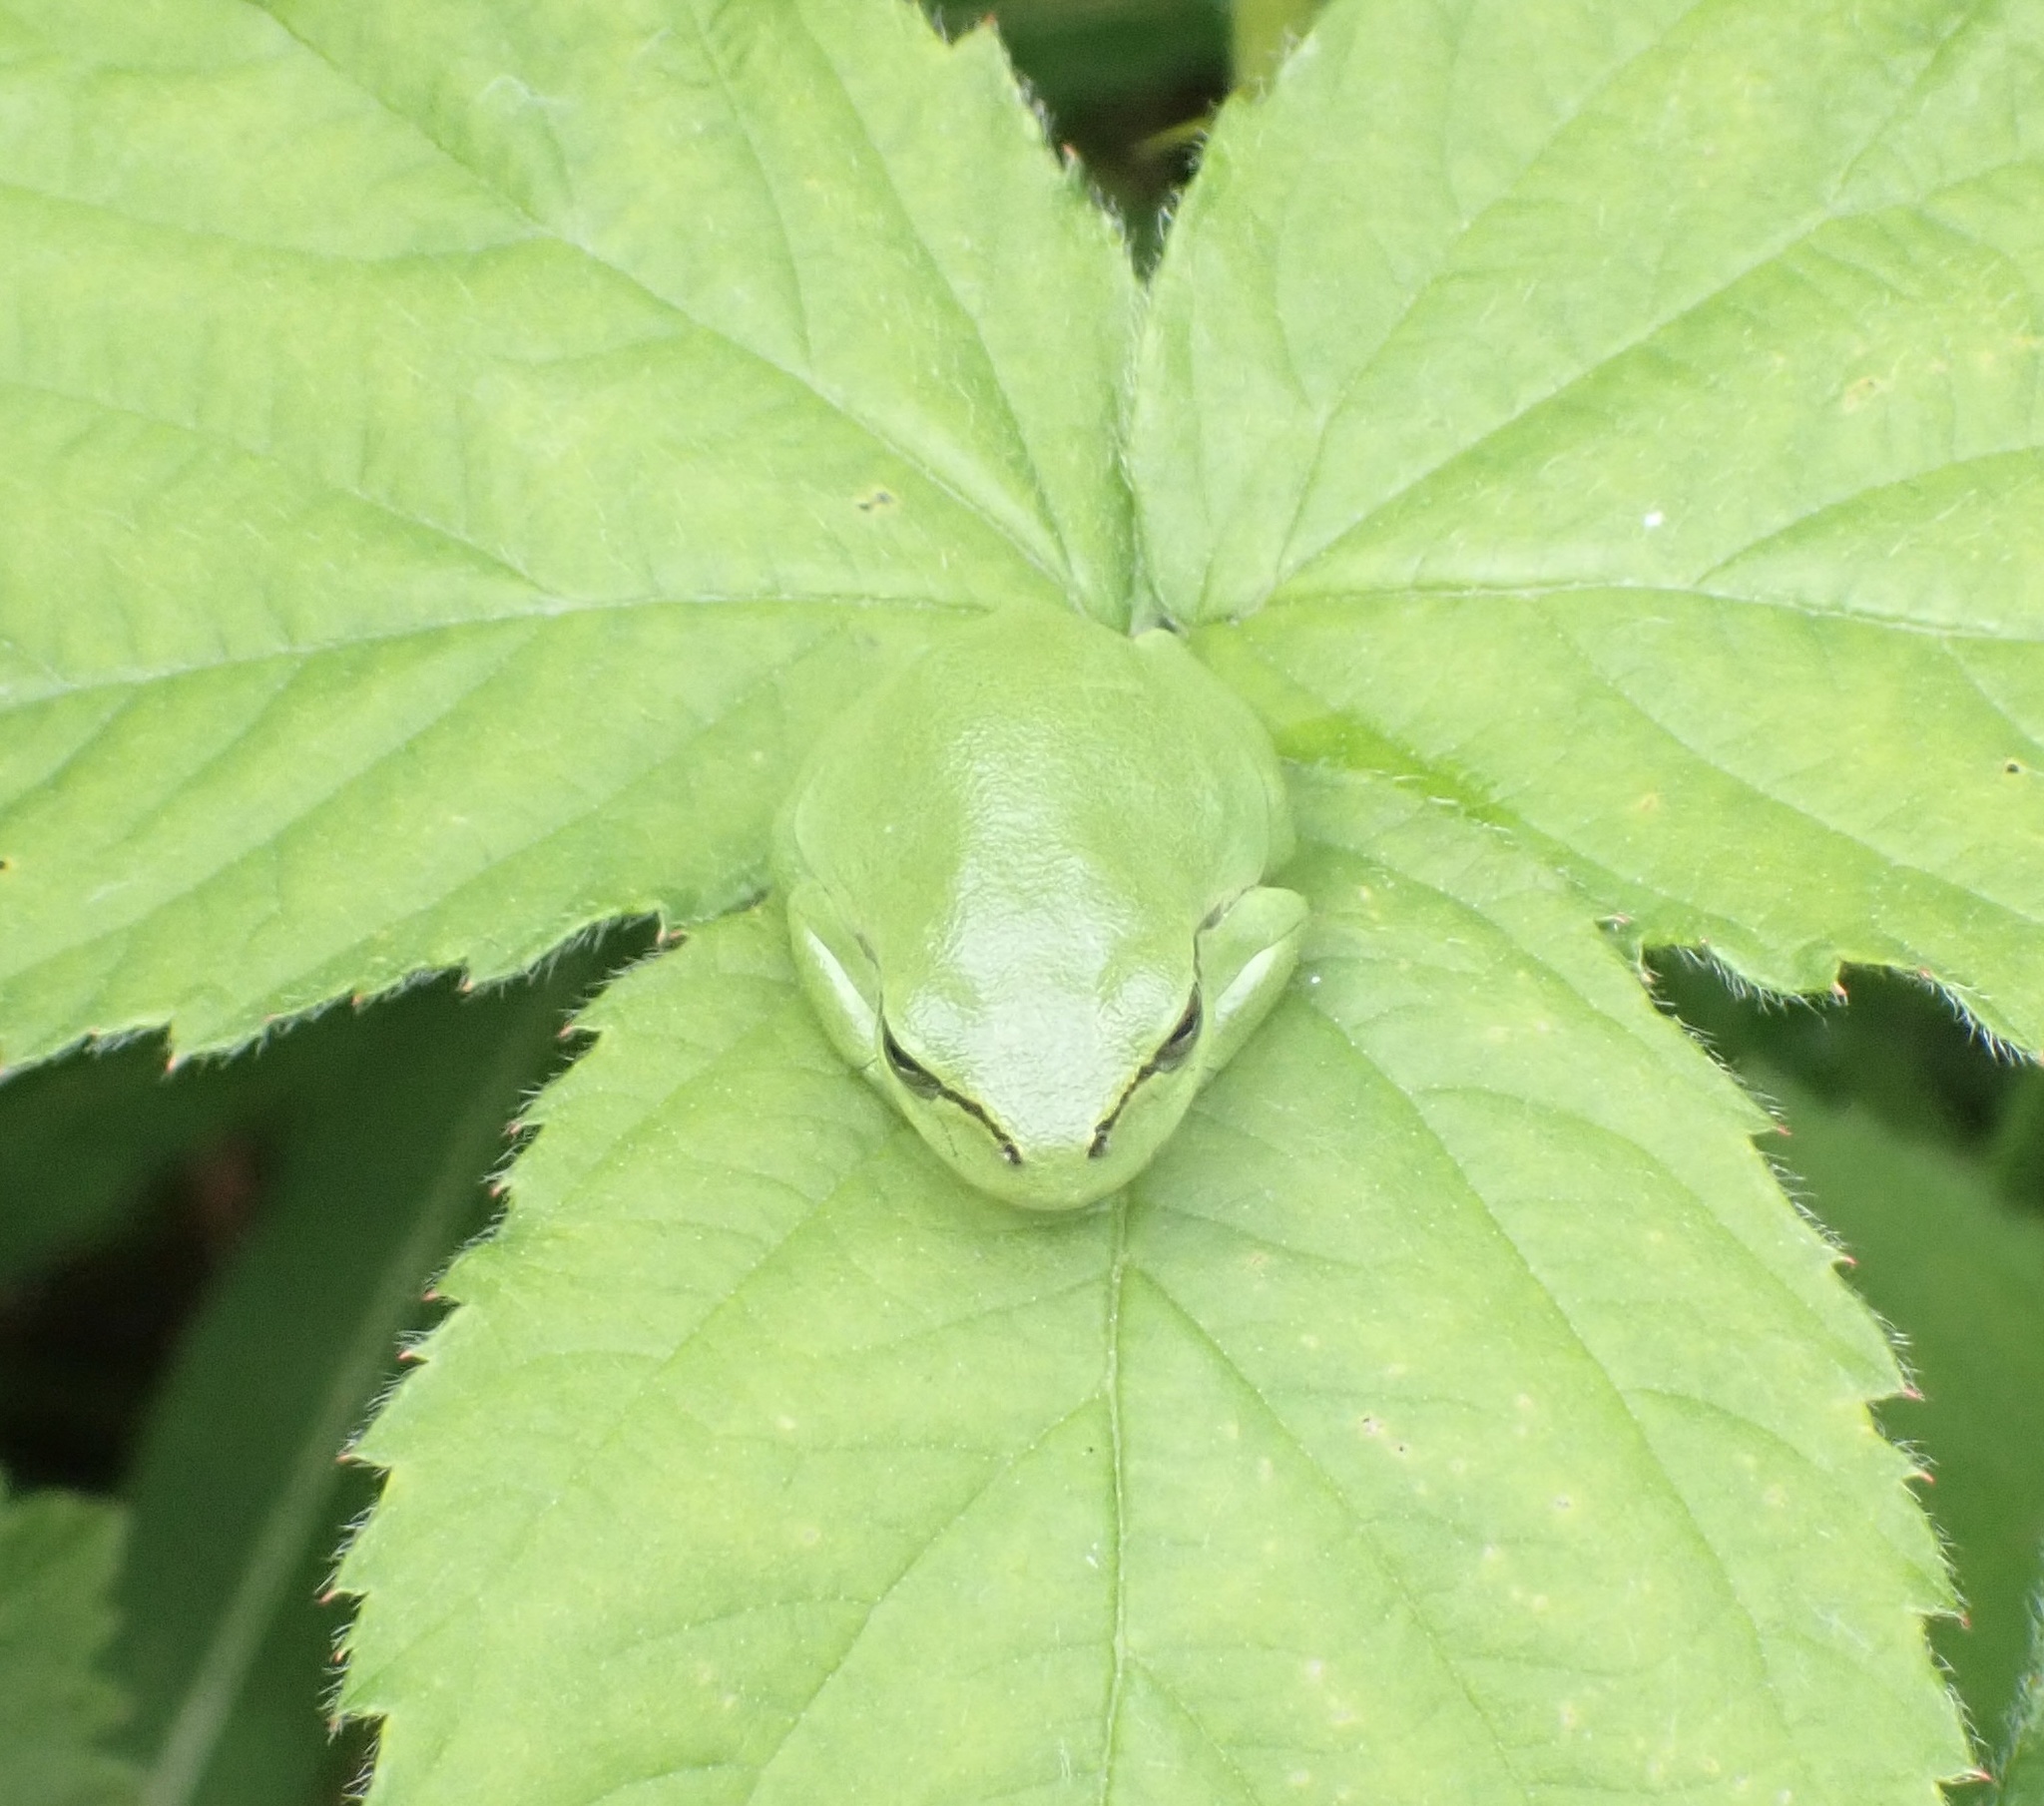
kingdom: Animalia
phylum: Chordata
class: Amphibia
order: Anura
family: Hylidae
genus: Hyla
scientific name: Hyla arborea
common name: Common tree frog
